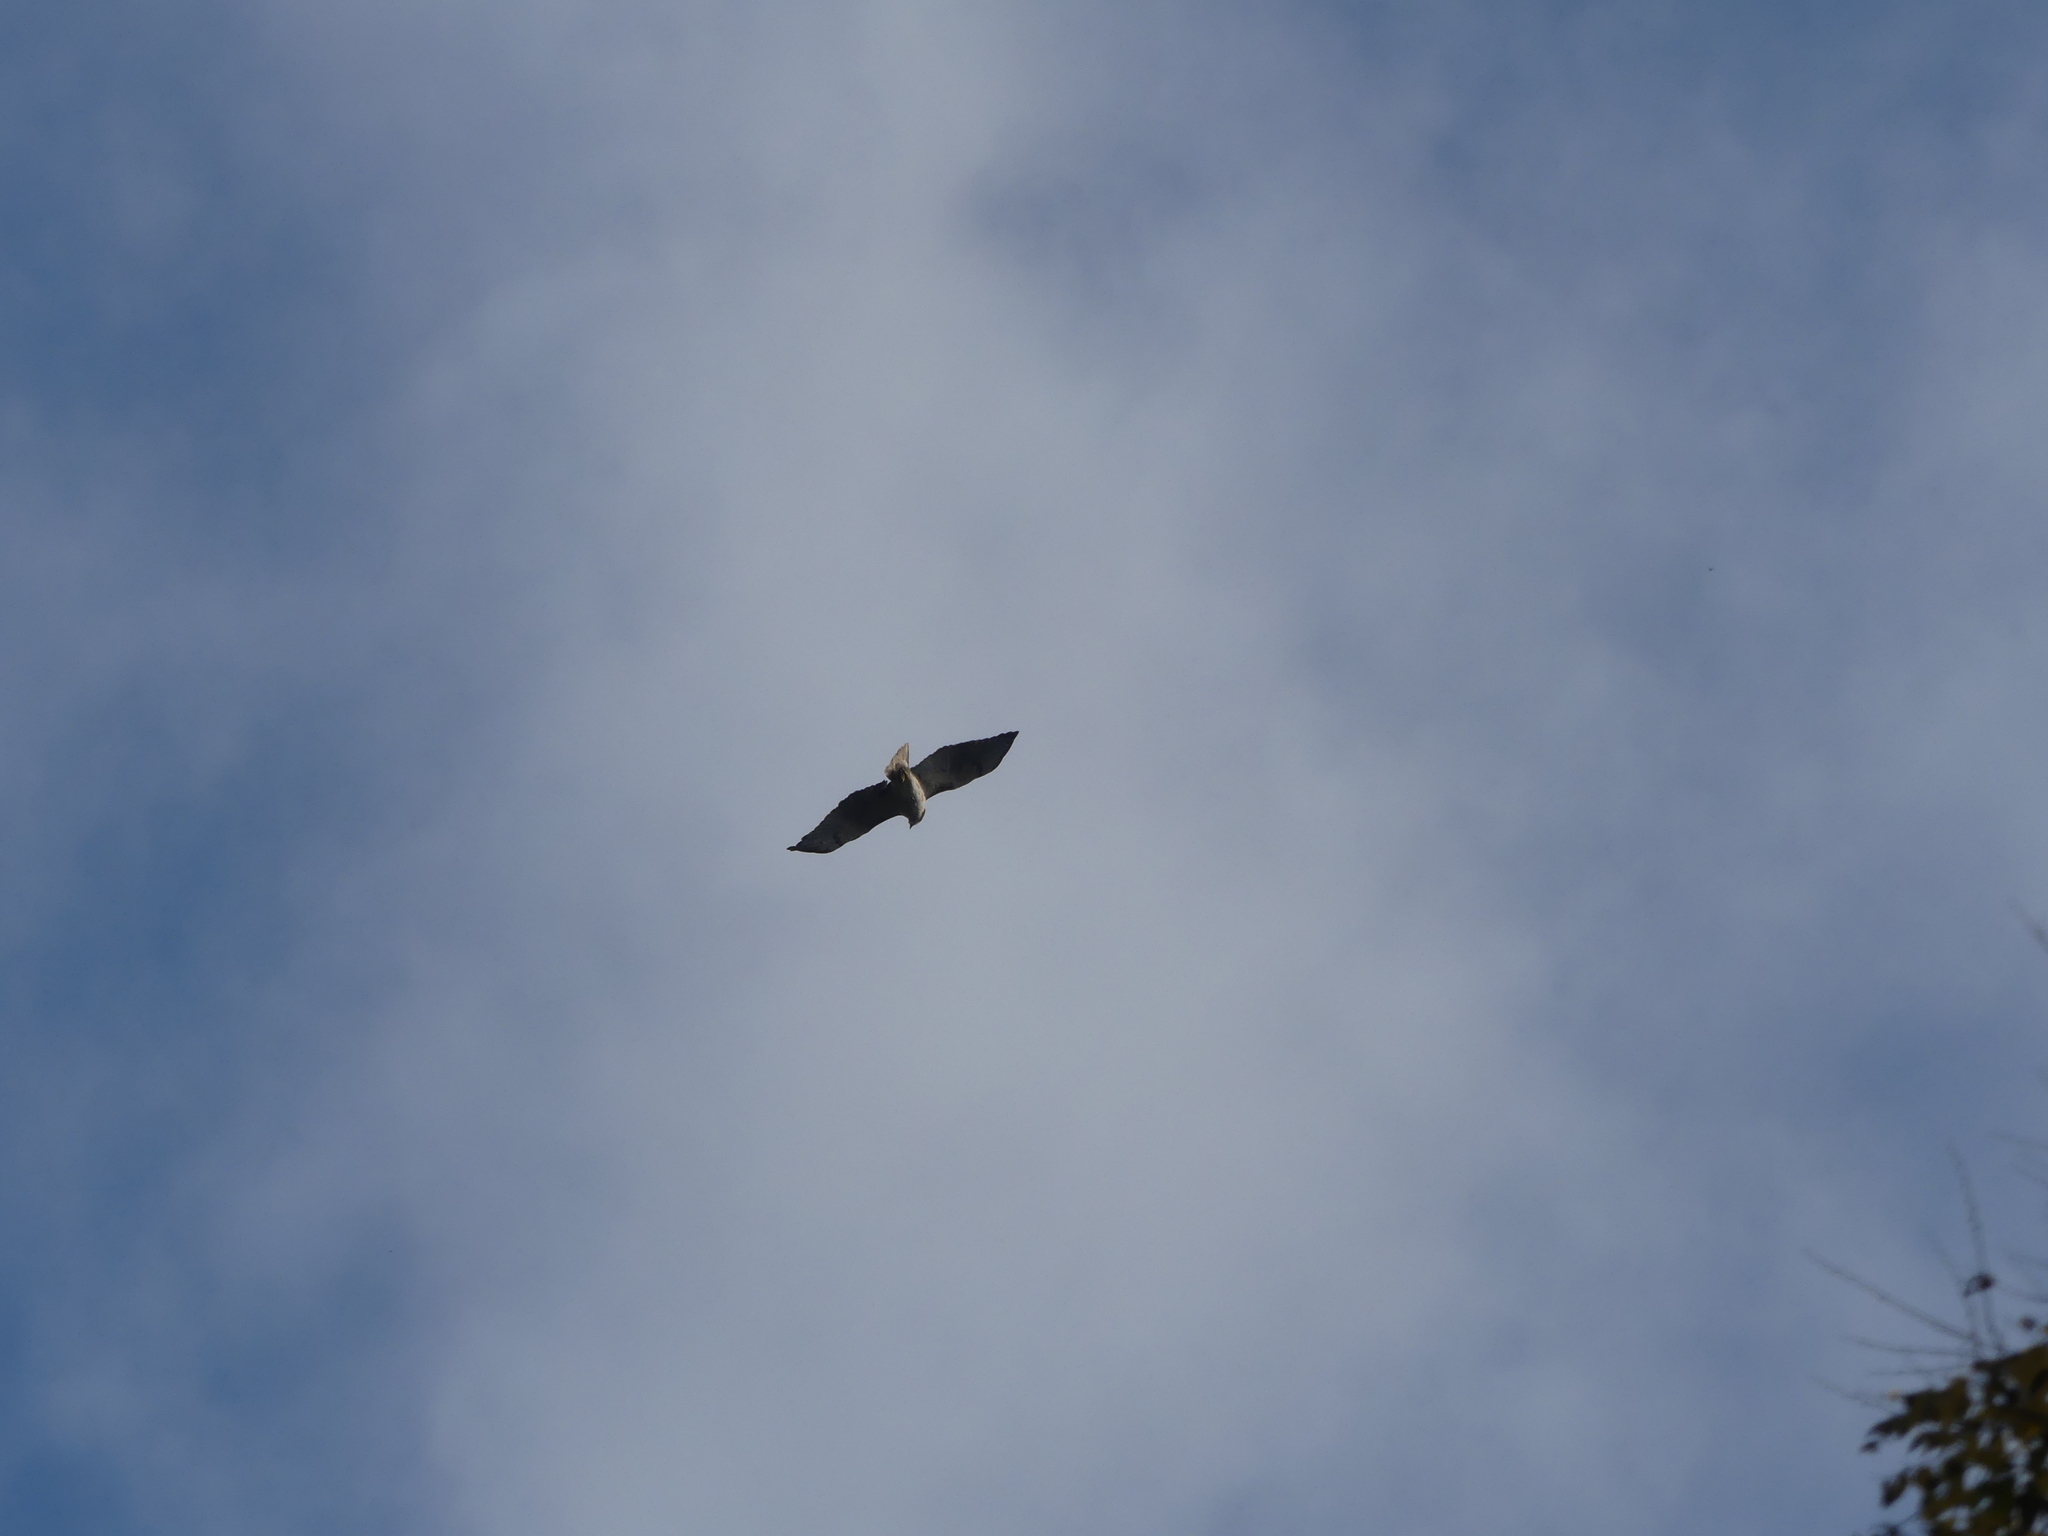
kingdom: Animalia
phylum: Chordata
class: Aves
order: Accipitriformes
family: Accipitridae
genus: Buteo
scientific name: Buteo jamaicensis
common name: Red-tailed hawk
